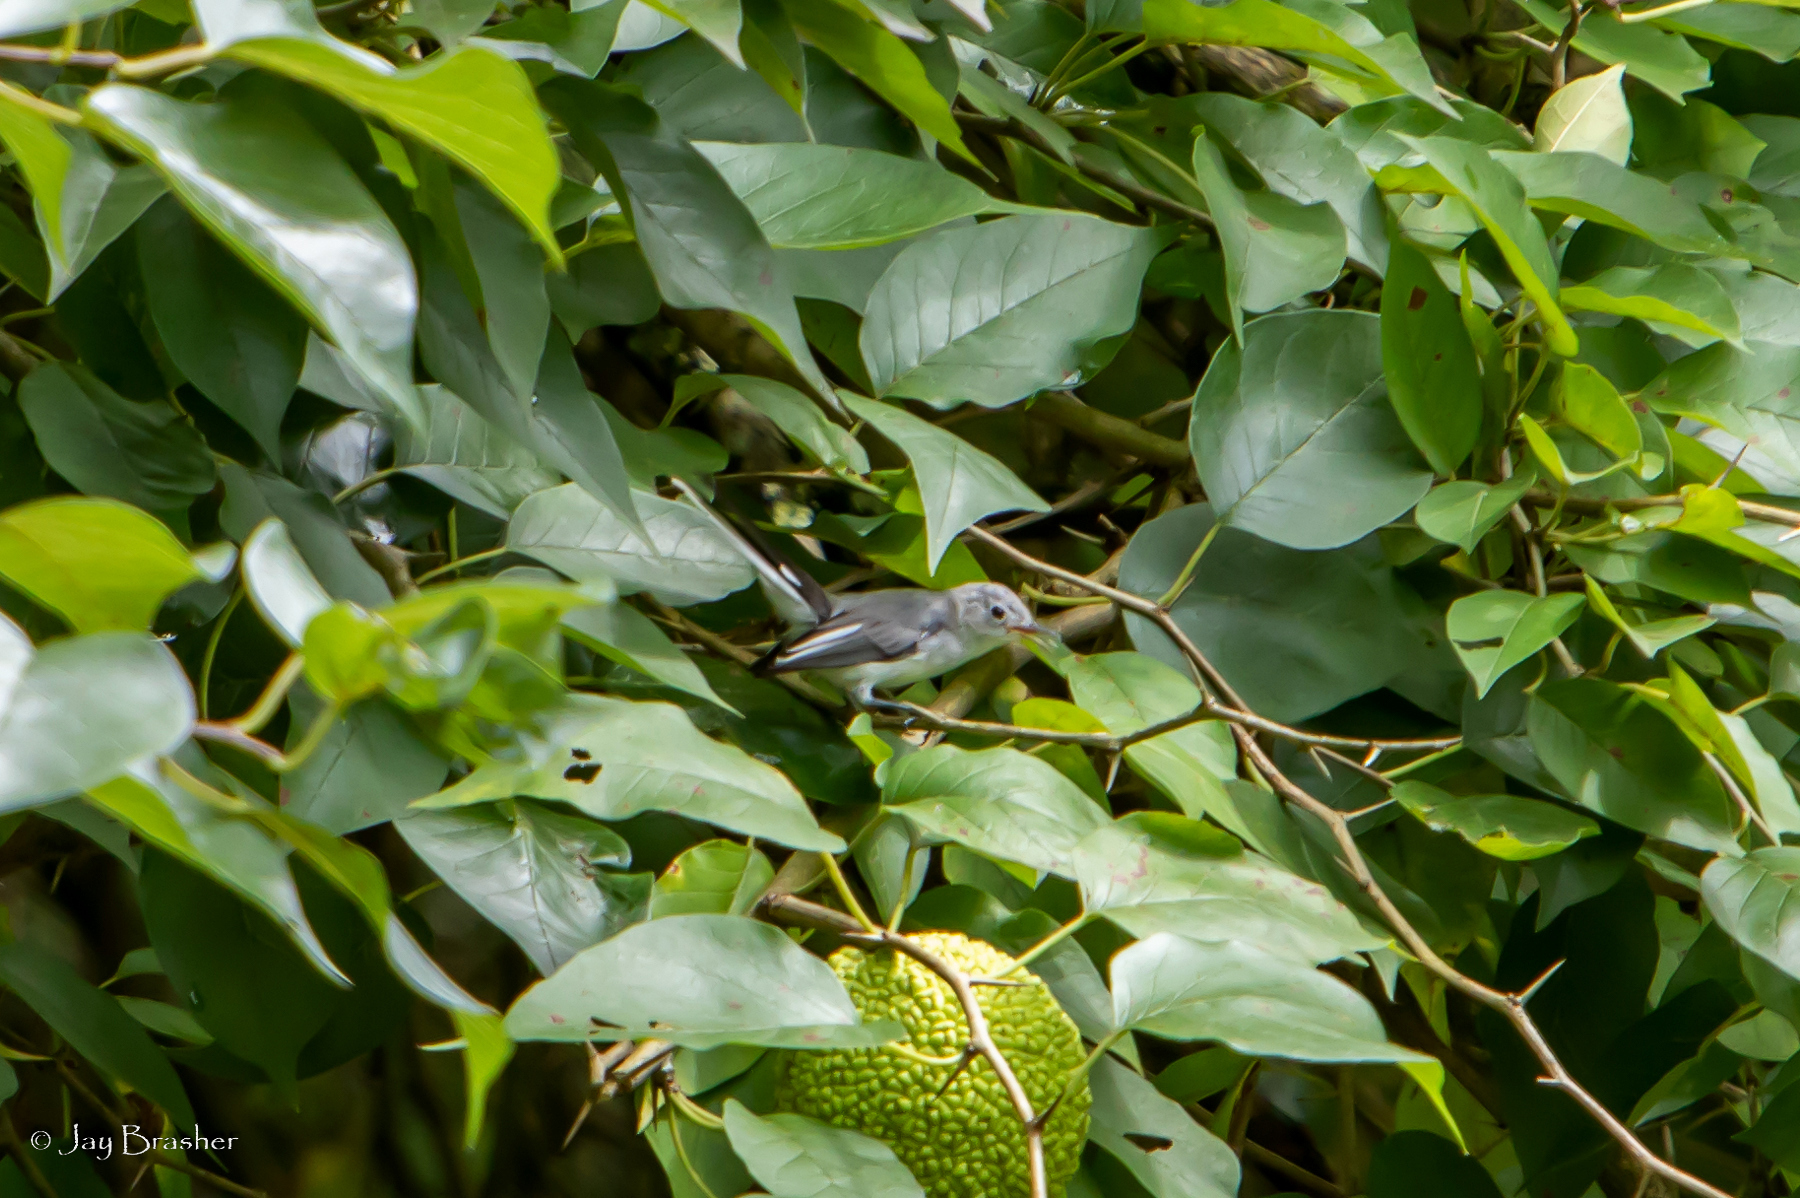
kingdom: Animalia
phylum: Chordata
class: Aves
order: Passeriformes
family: Polioptilidae
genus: Polioptila
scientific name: Polioptila caerulea
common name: Blue-gray gnatcatcher
